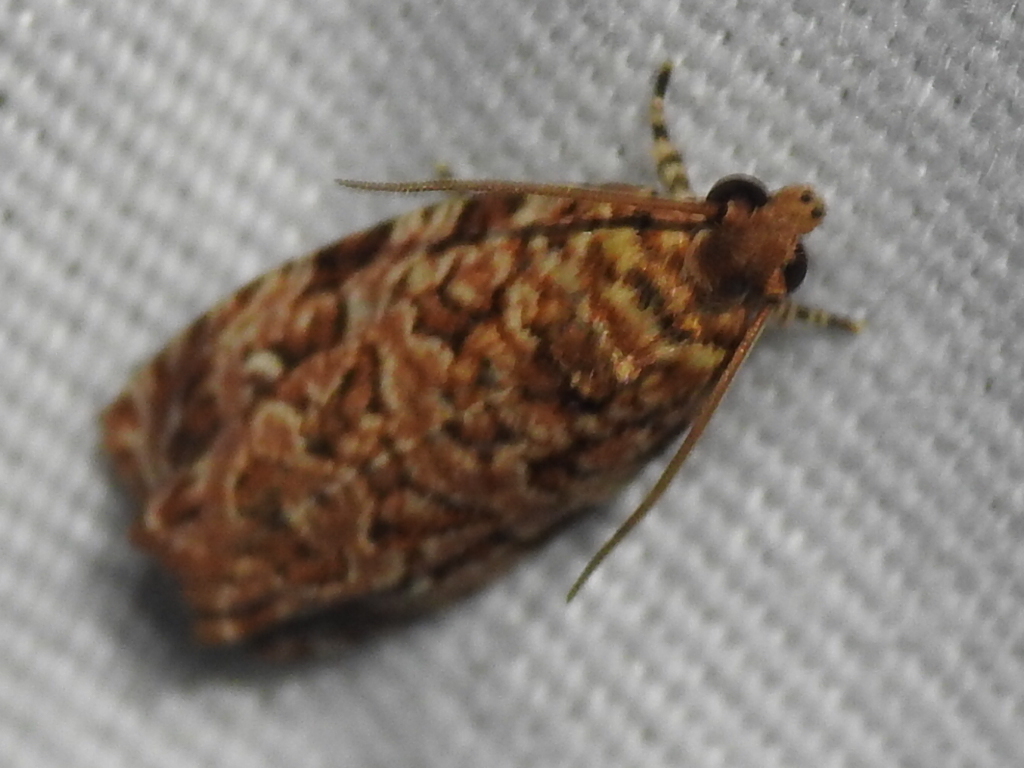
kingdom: Animalia
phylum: Arthropoda
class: Insecta
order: Lepidoptera
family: Tortricidae
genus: Phaecasiophora
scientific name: Phaecasiophora niveiguttana
